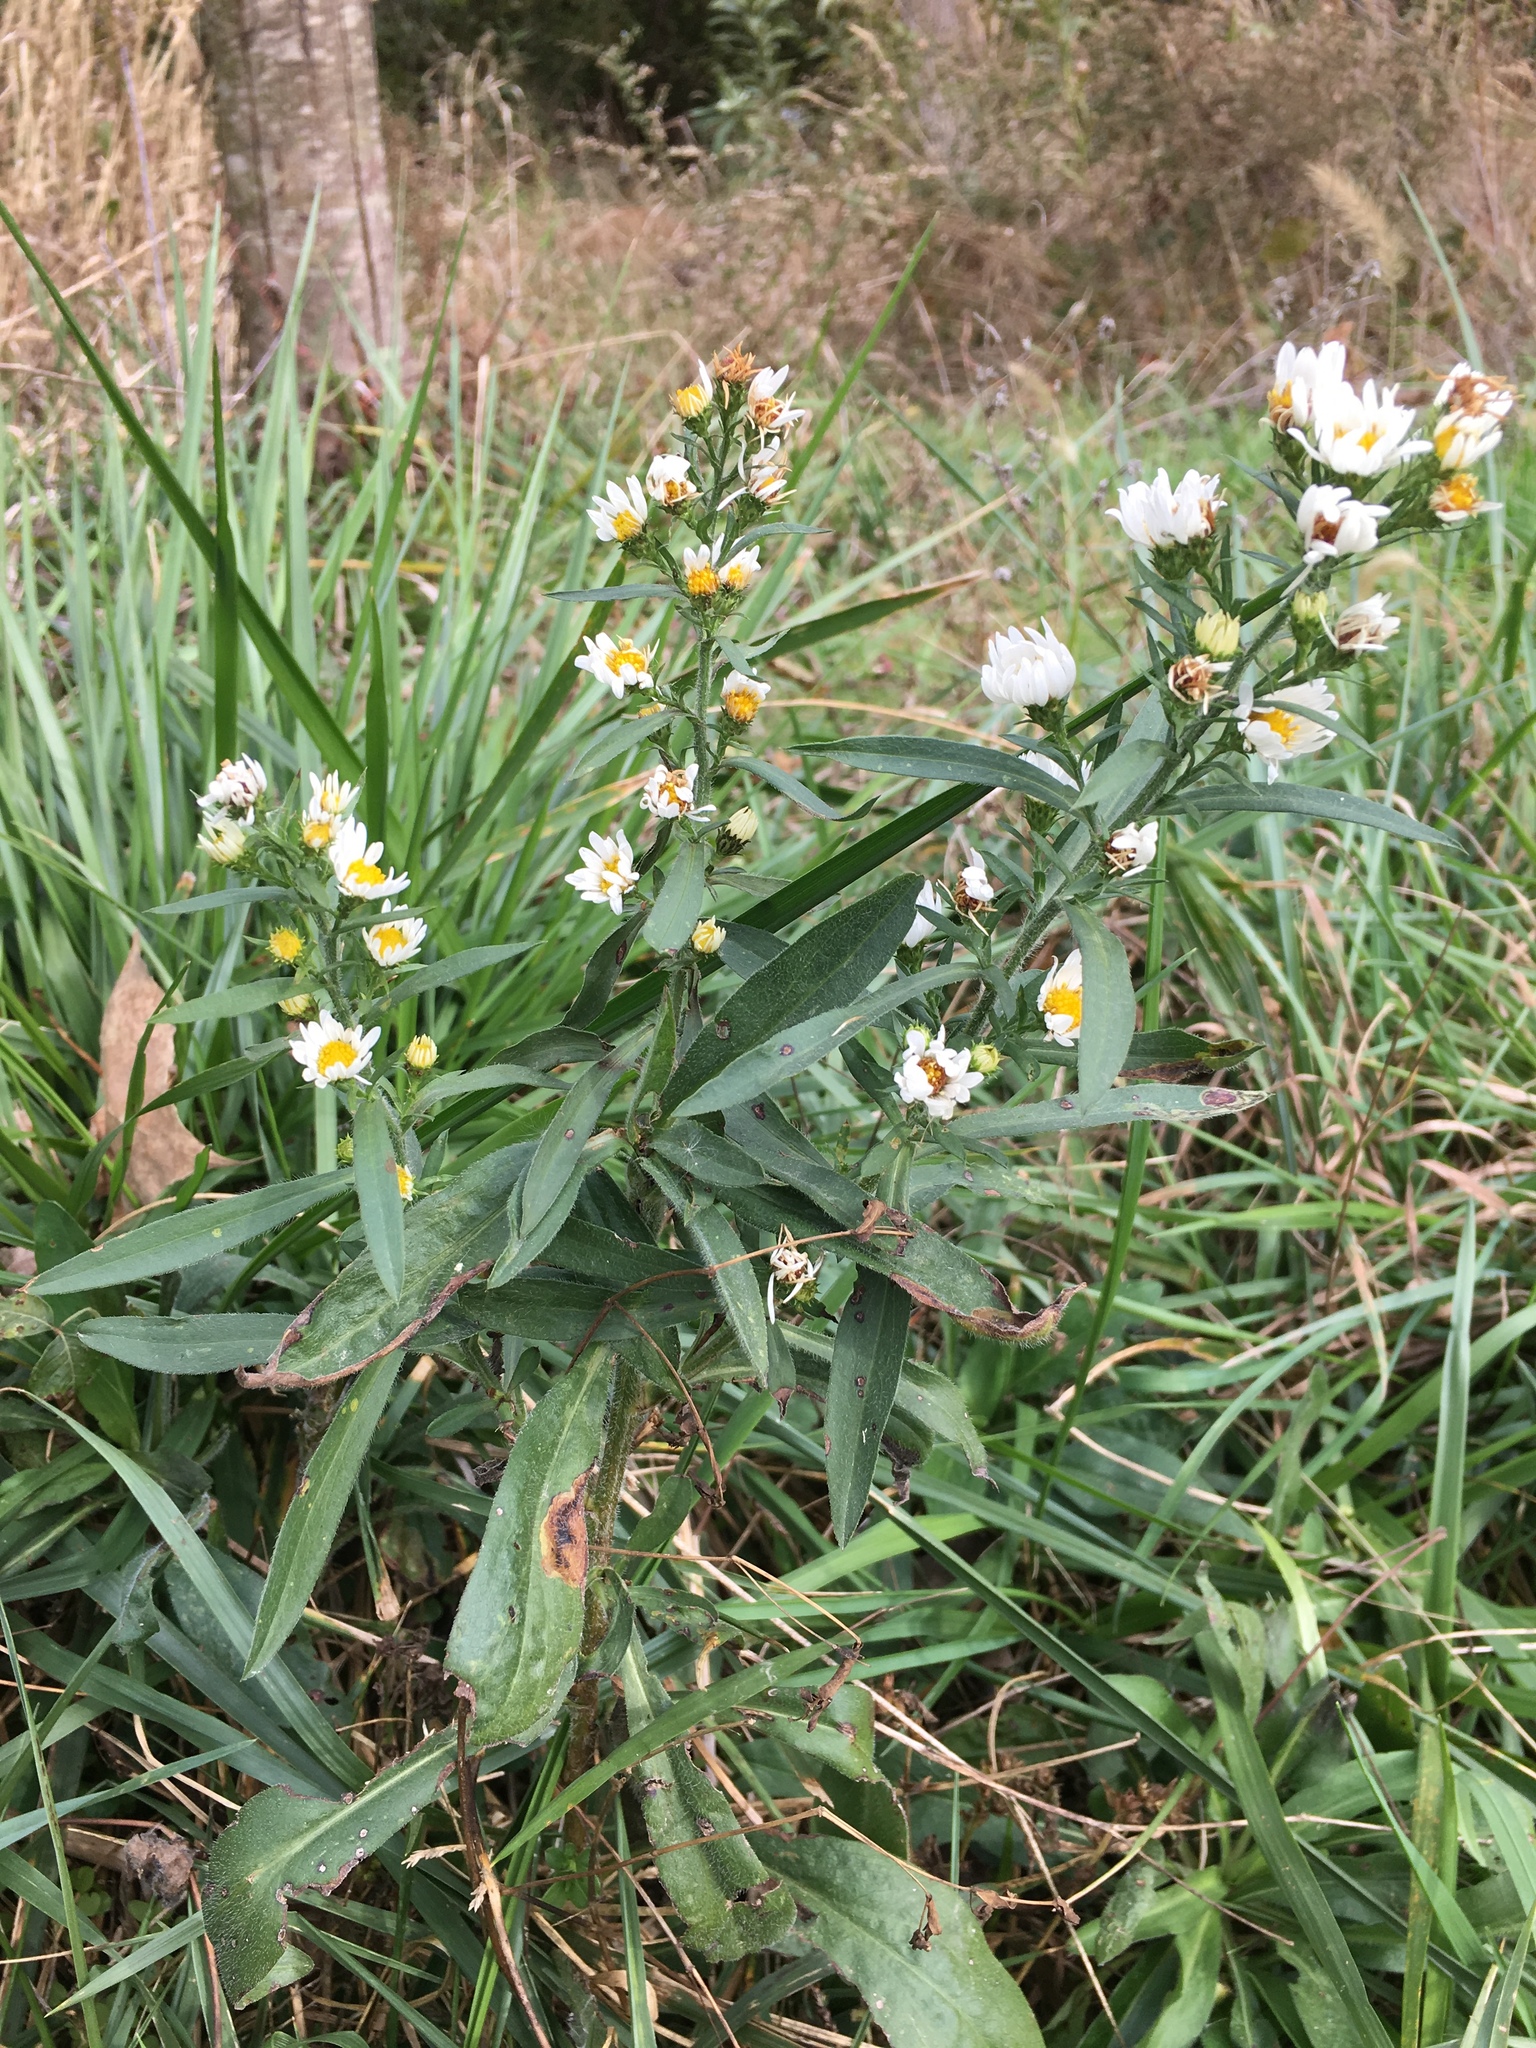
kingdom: Plantae
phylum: Tracheophyta
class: Magnoliopsida
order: Asterales
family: Asteraceae
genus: Symphyotrichum
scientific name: Symphyotrichum pilosum
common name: Awl aster
